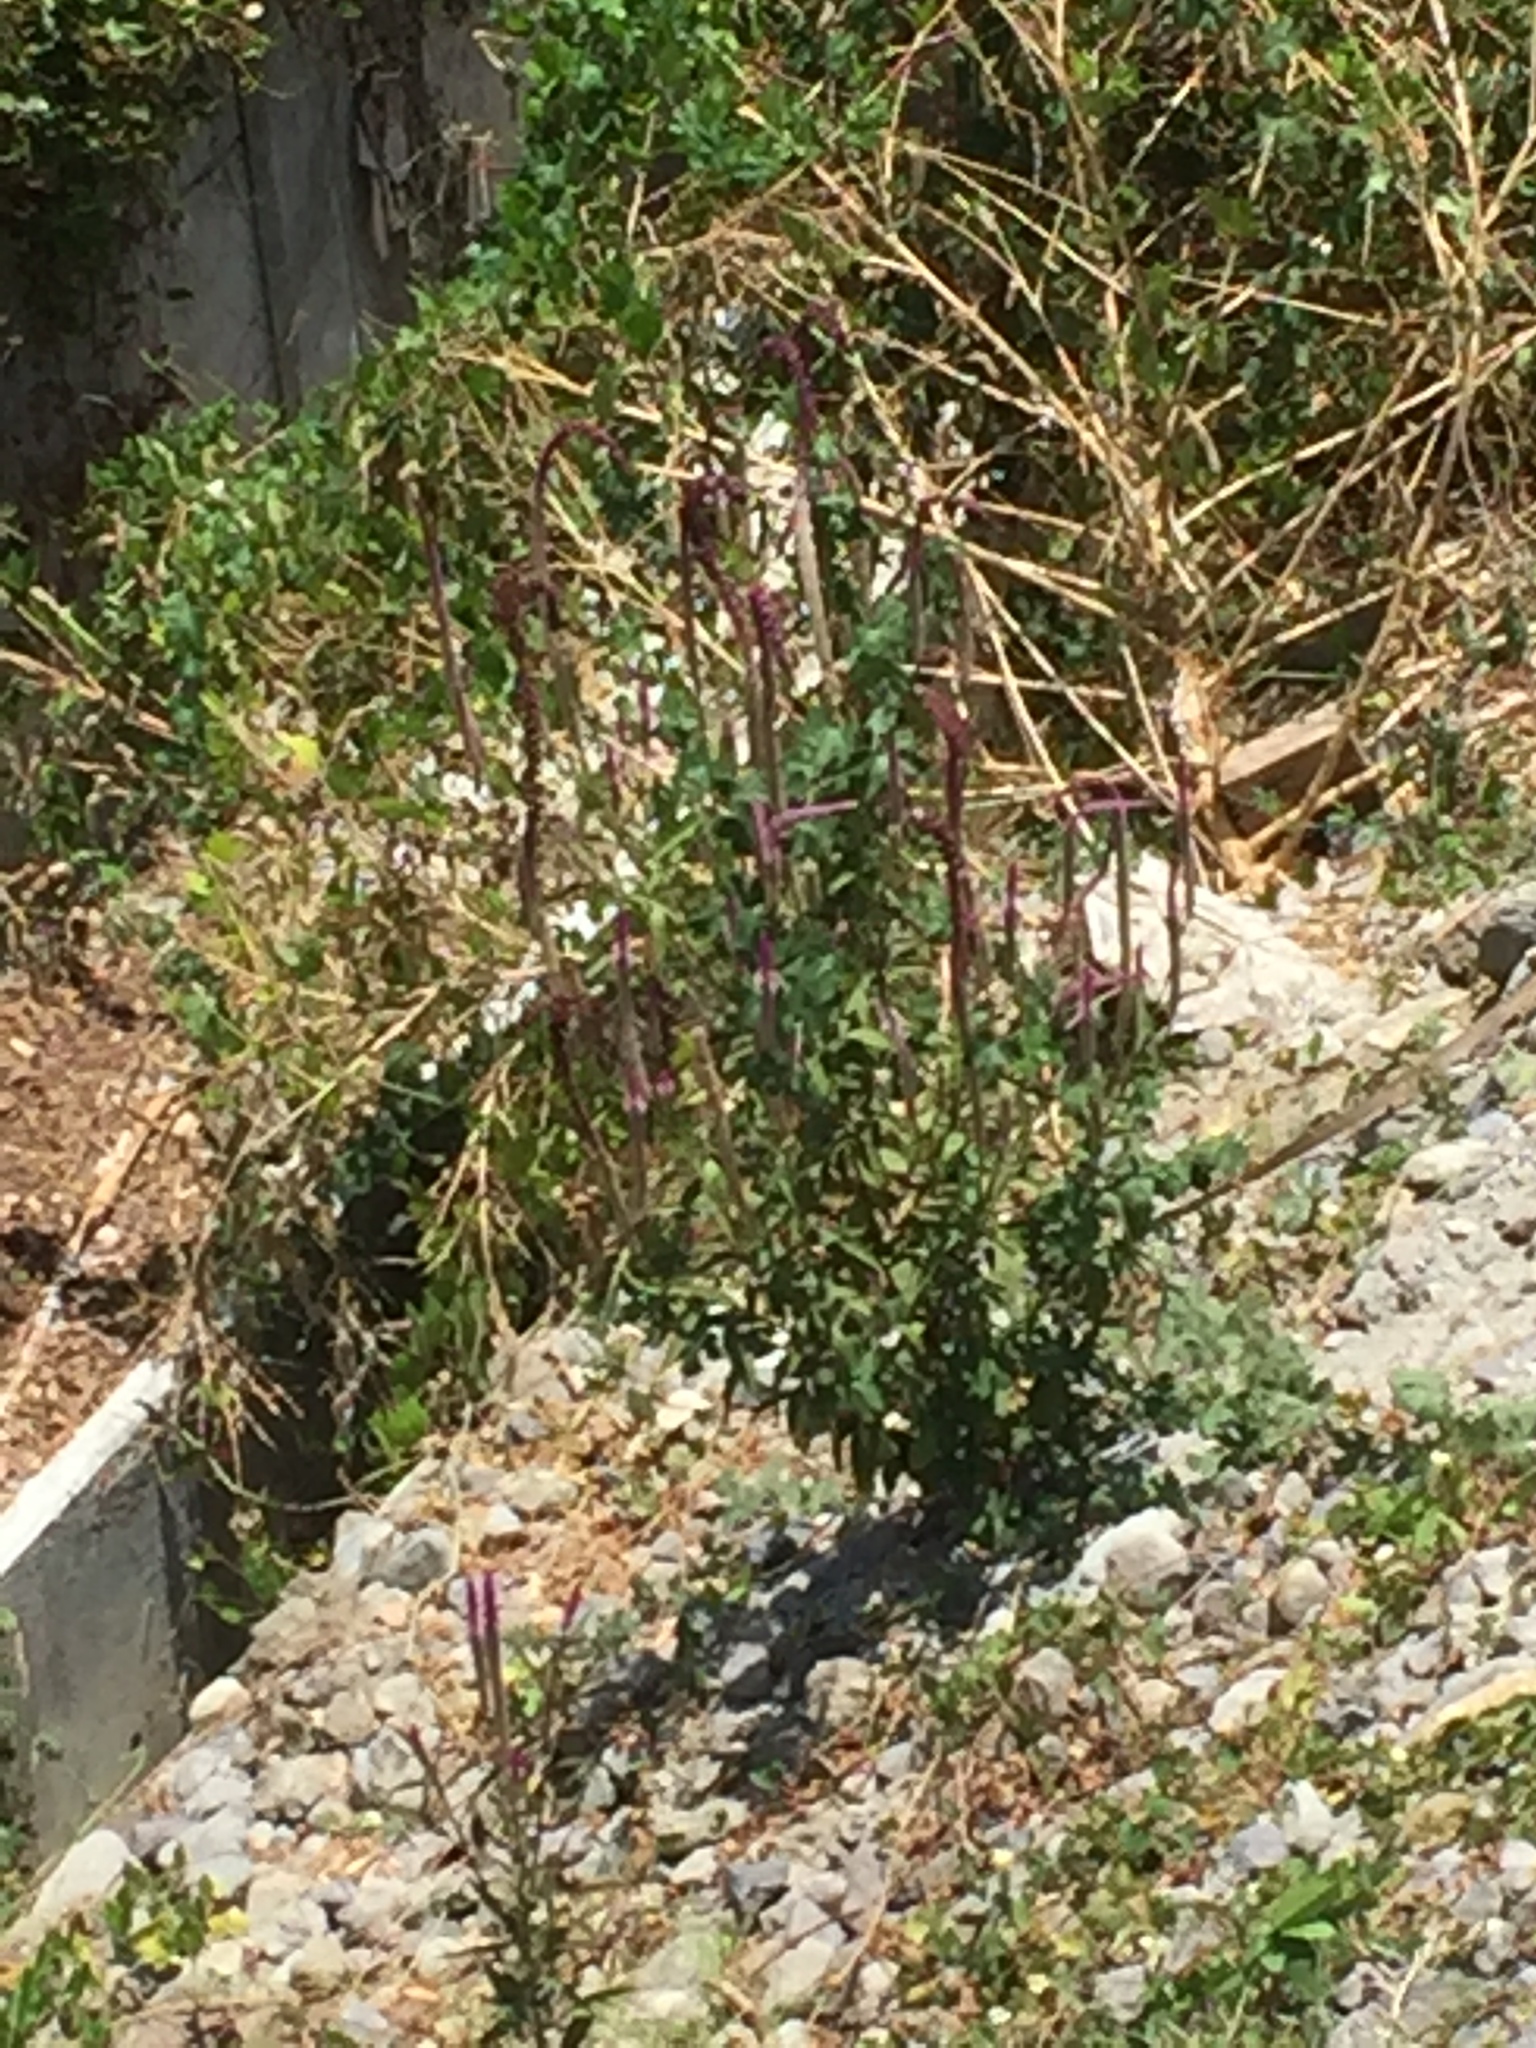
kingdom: Plantae
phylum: Tracheophyta
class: Magnoliopsida
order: Caryophyllales
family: Amaranthaceae
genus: Celosia
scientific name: Celosia argentea
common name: Feather cockscomb
